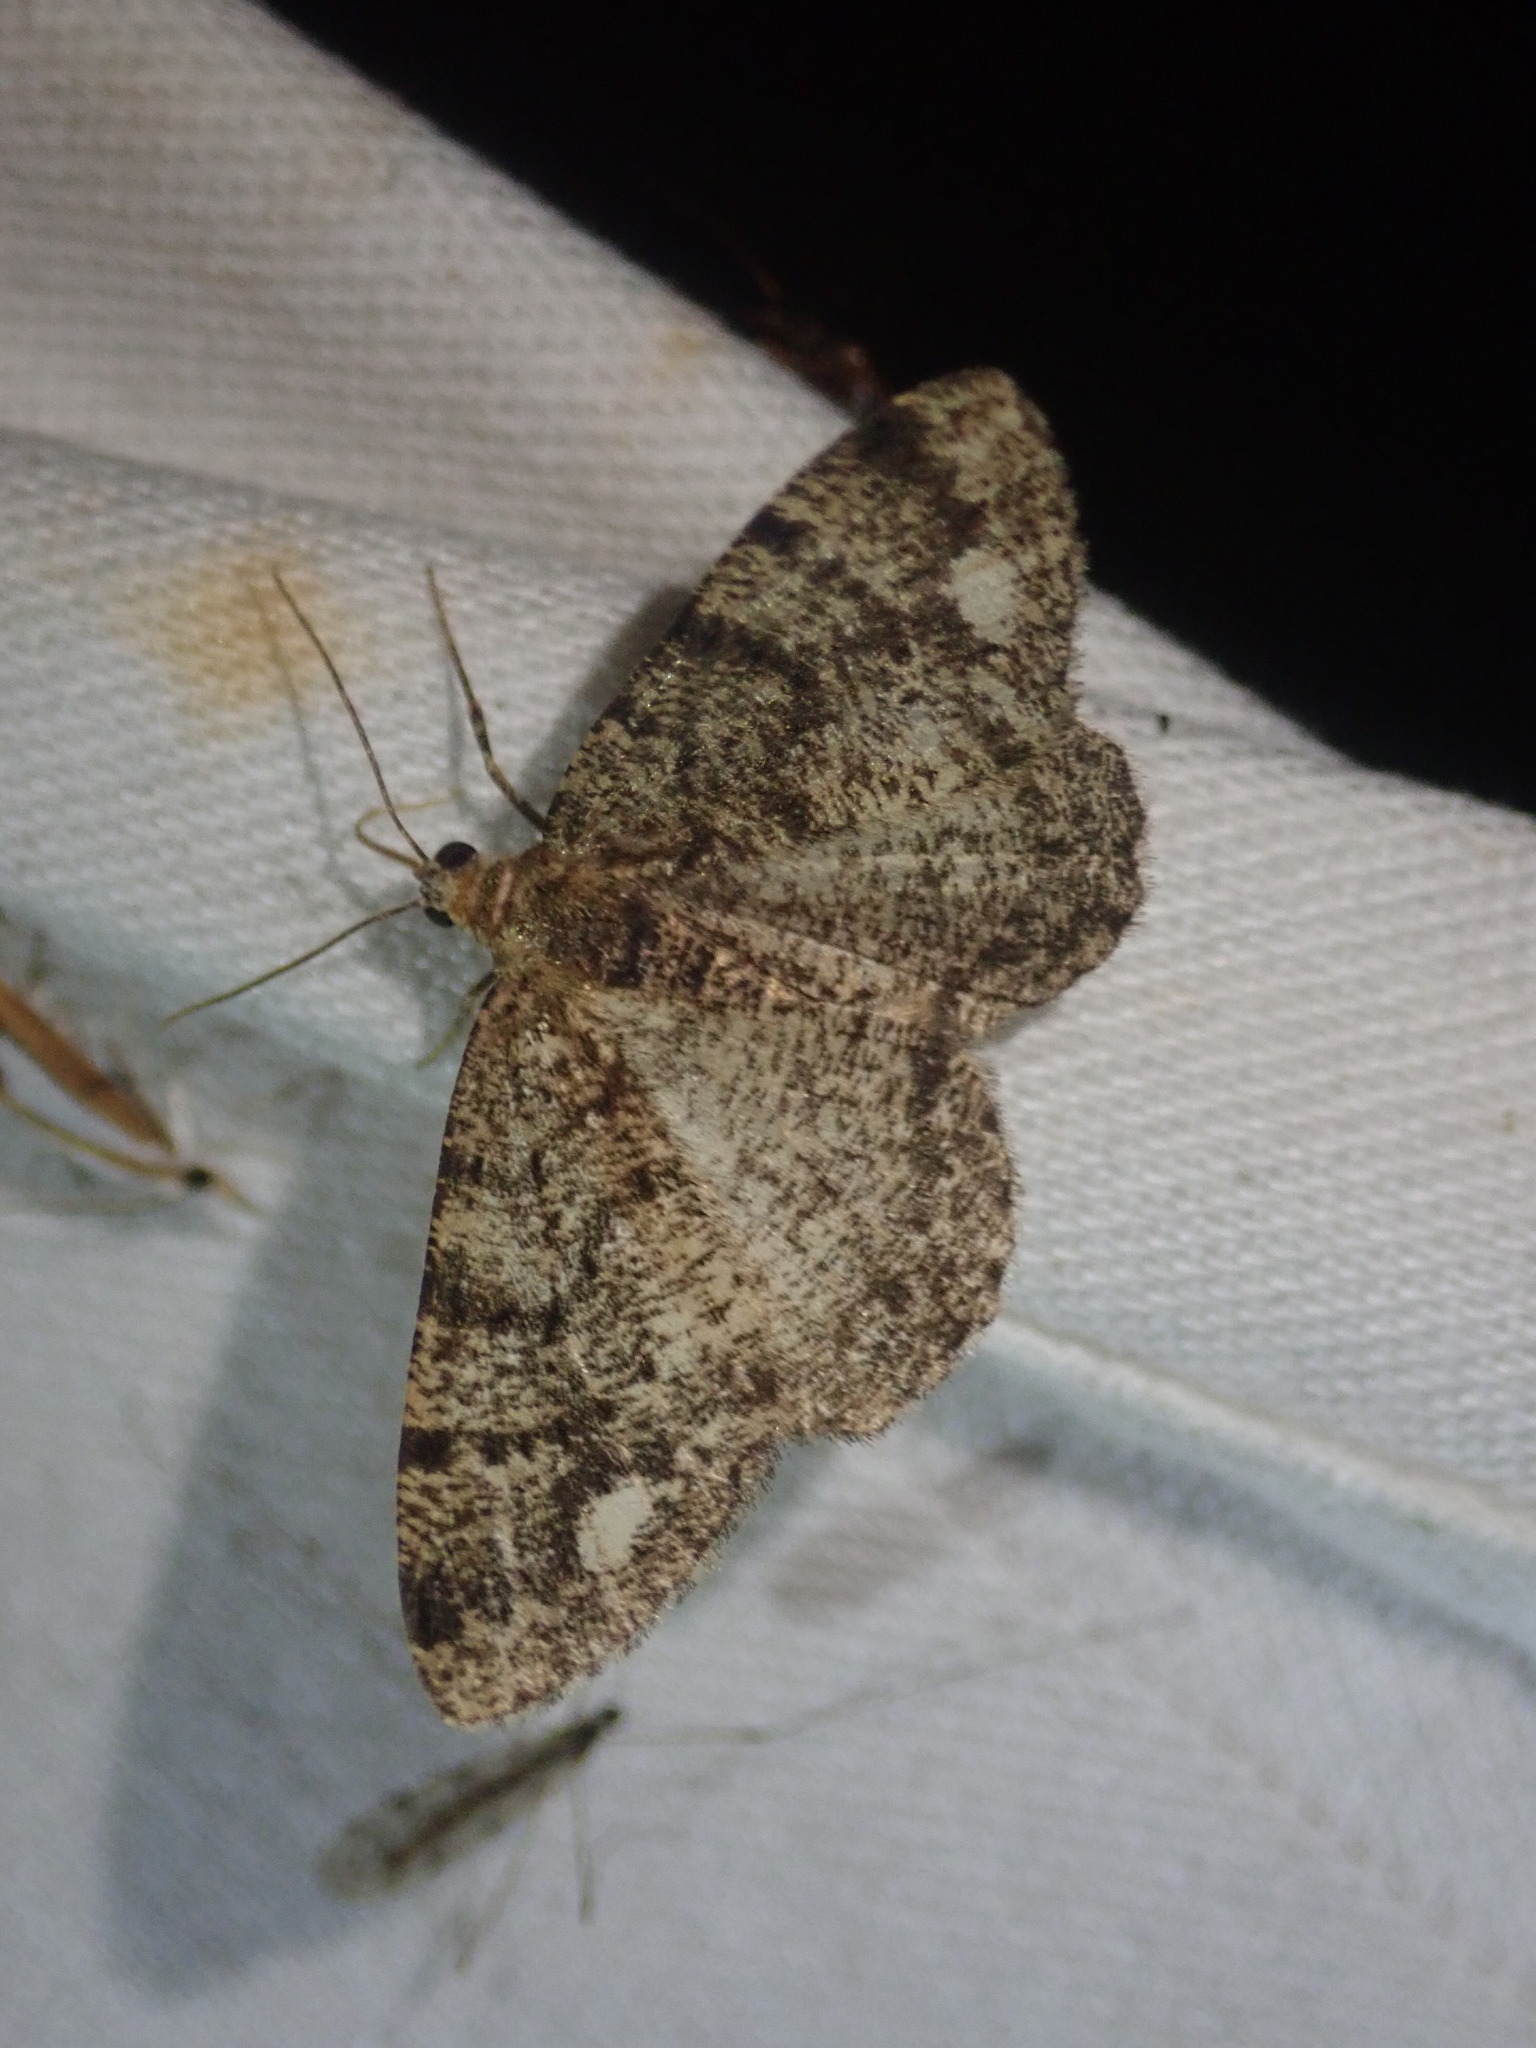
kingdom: Animalia
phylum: Arthropoda
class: Insecta
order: Lepidoptera
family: Geometridae
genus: Parectropis
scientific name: Parectropis similaria
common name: Brindled white-spot
